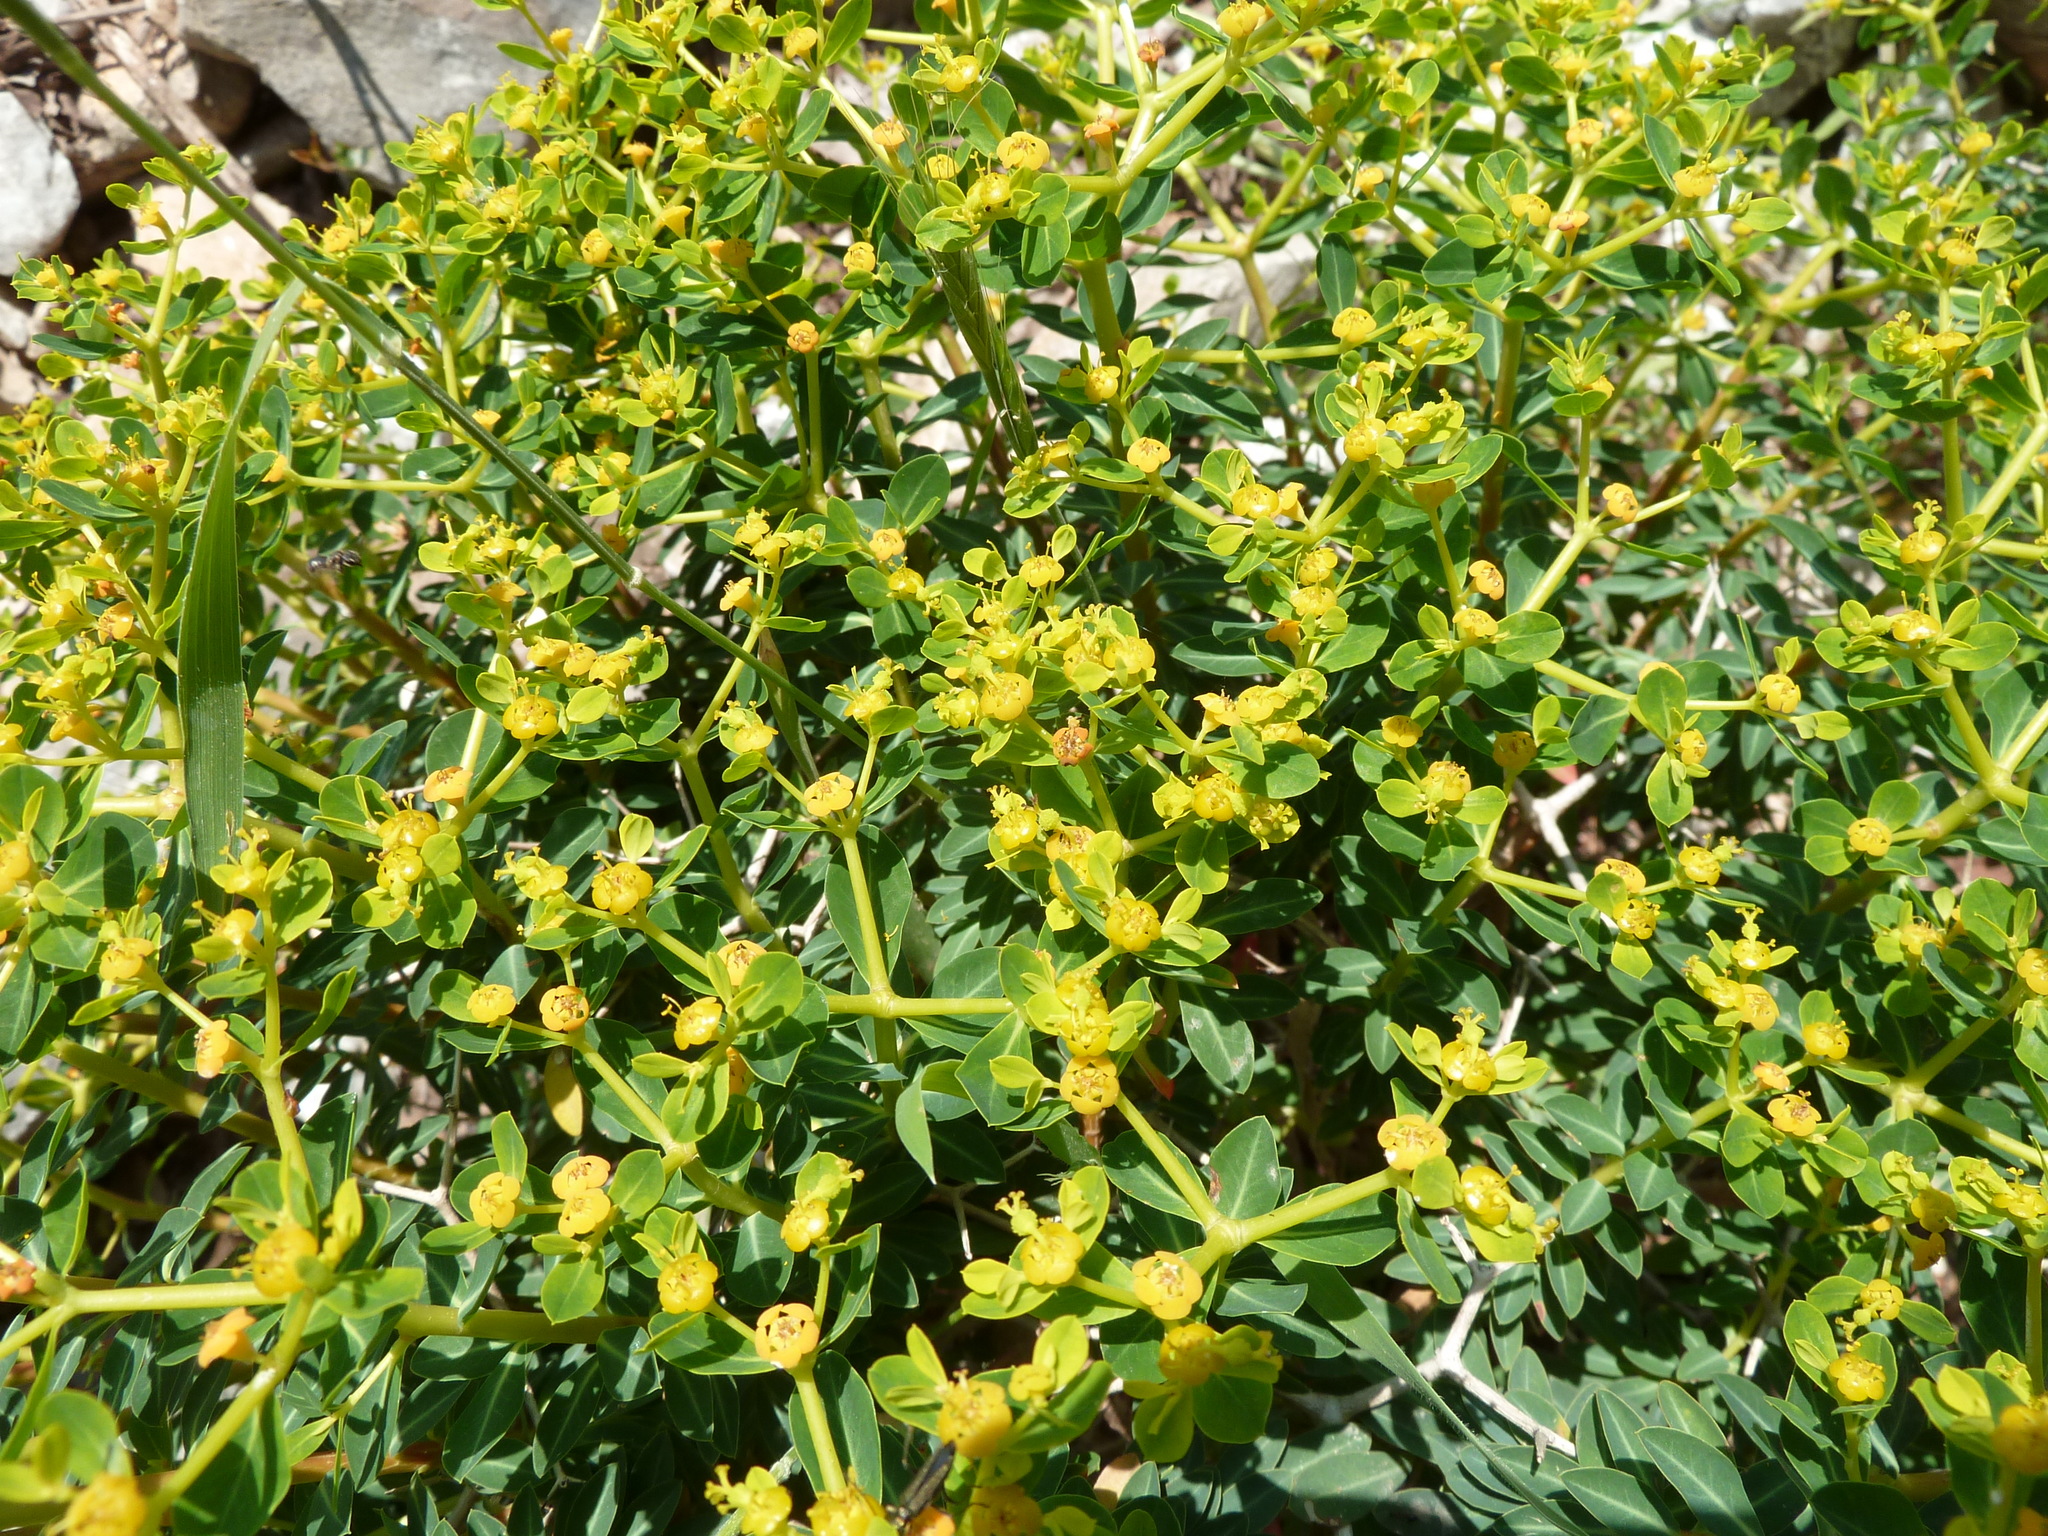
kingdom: Plantae
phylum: Tracheophyta
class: Magnoliopsida
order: Malpighiales
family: Euphorbiaceae
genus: Euphorbia
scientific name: Euphorbia acanthothamnos
